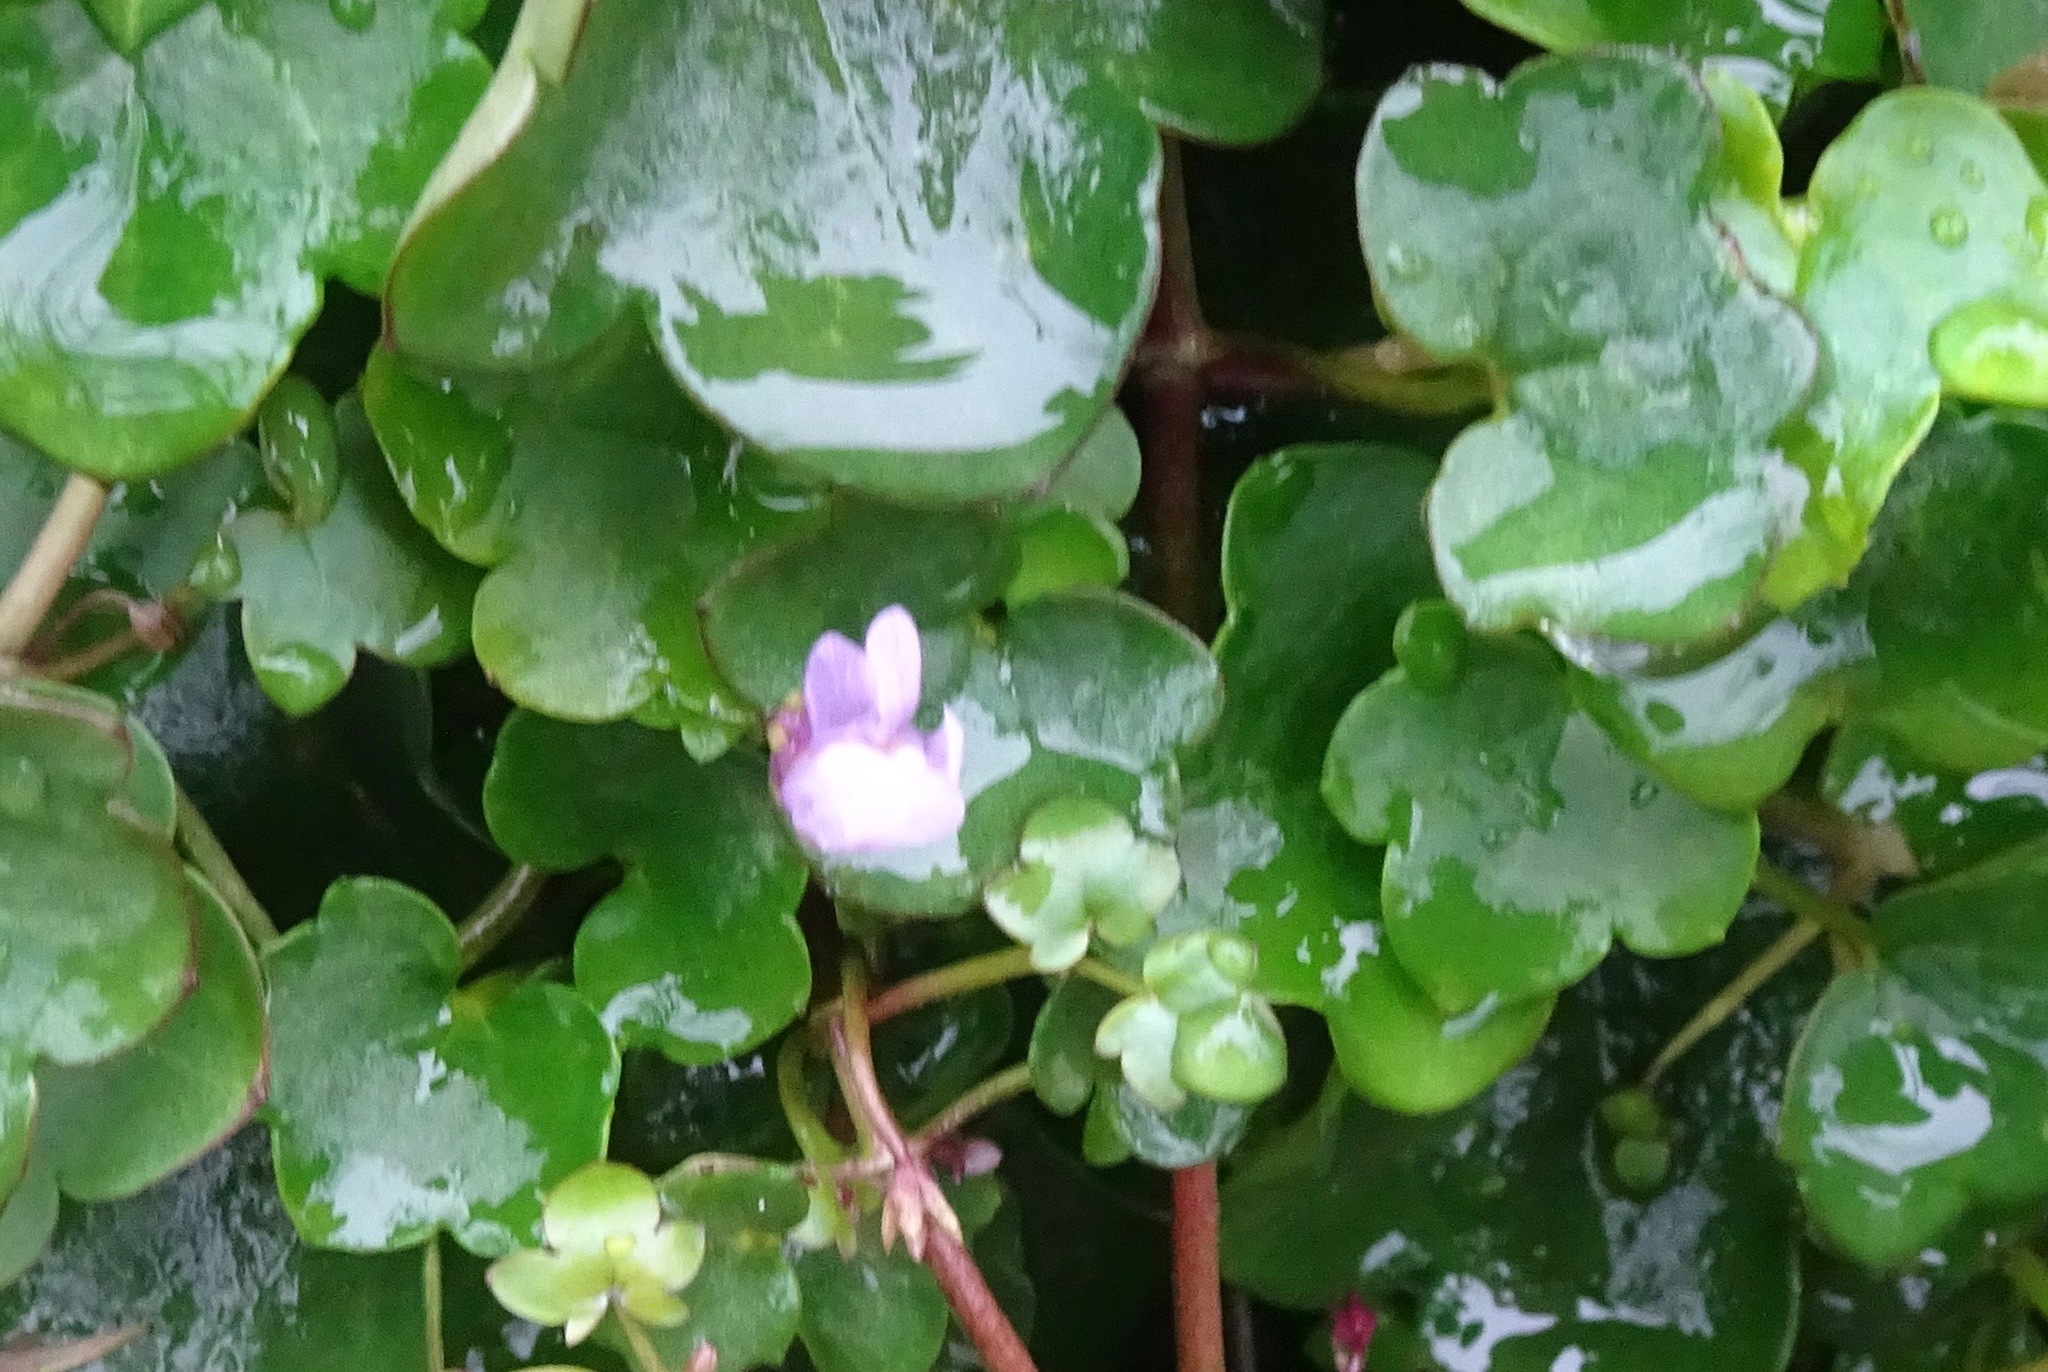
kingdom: Plantae
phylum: Tracheophyta
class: Magnoliopsida
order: Lamiales
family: Plantaginaceae
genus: Cymbalaria
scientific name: Cymbalaria muralis
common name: Ivy-leaved toadflax
